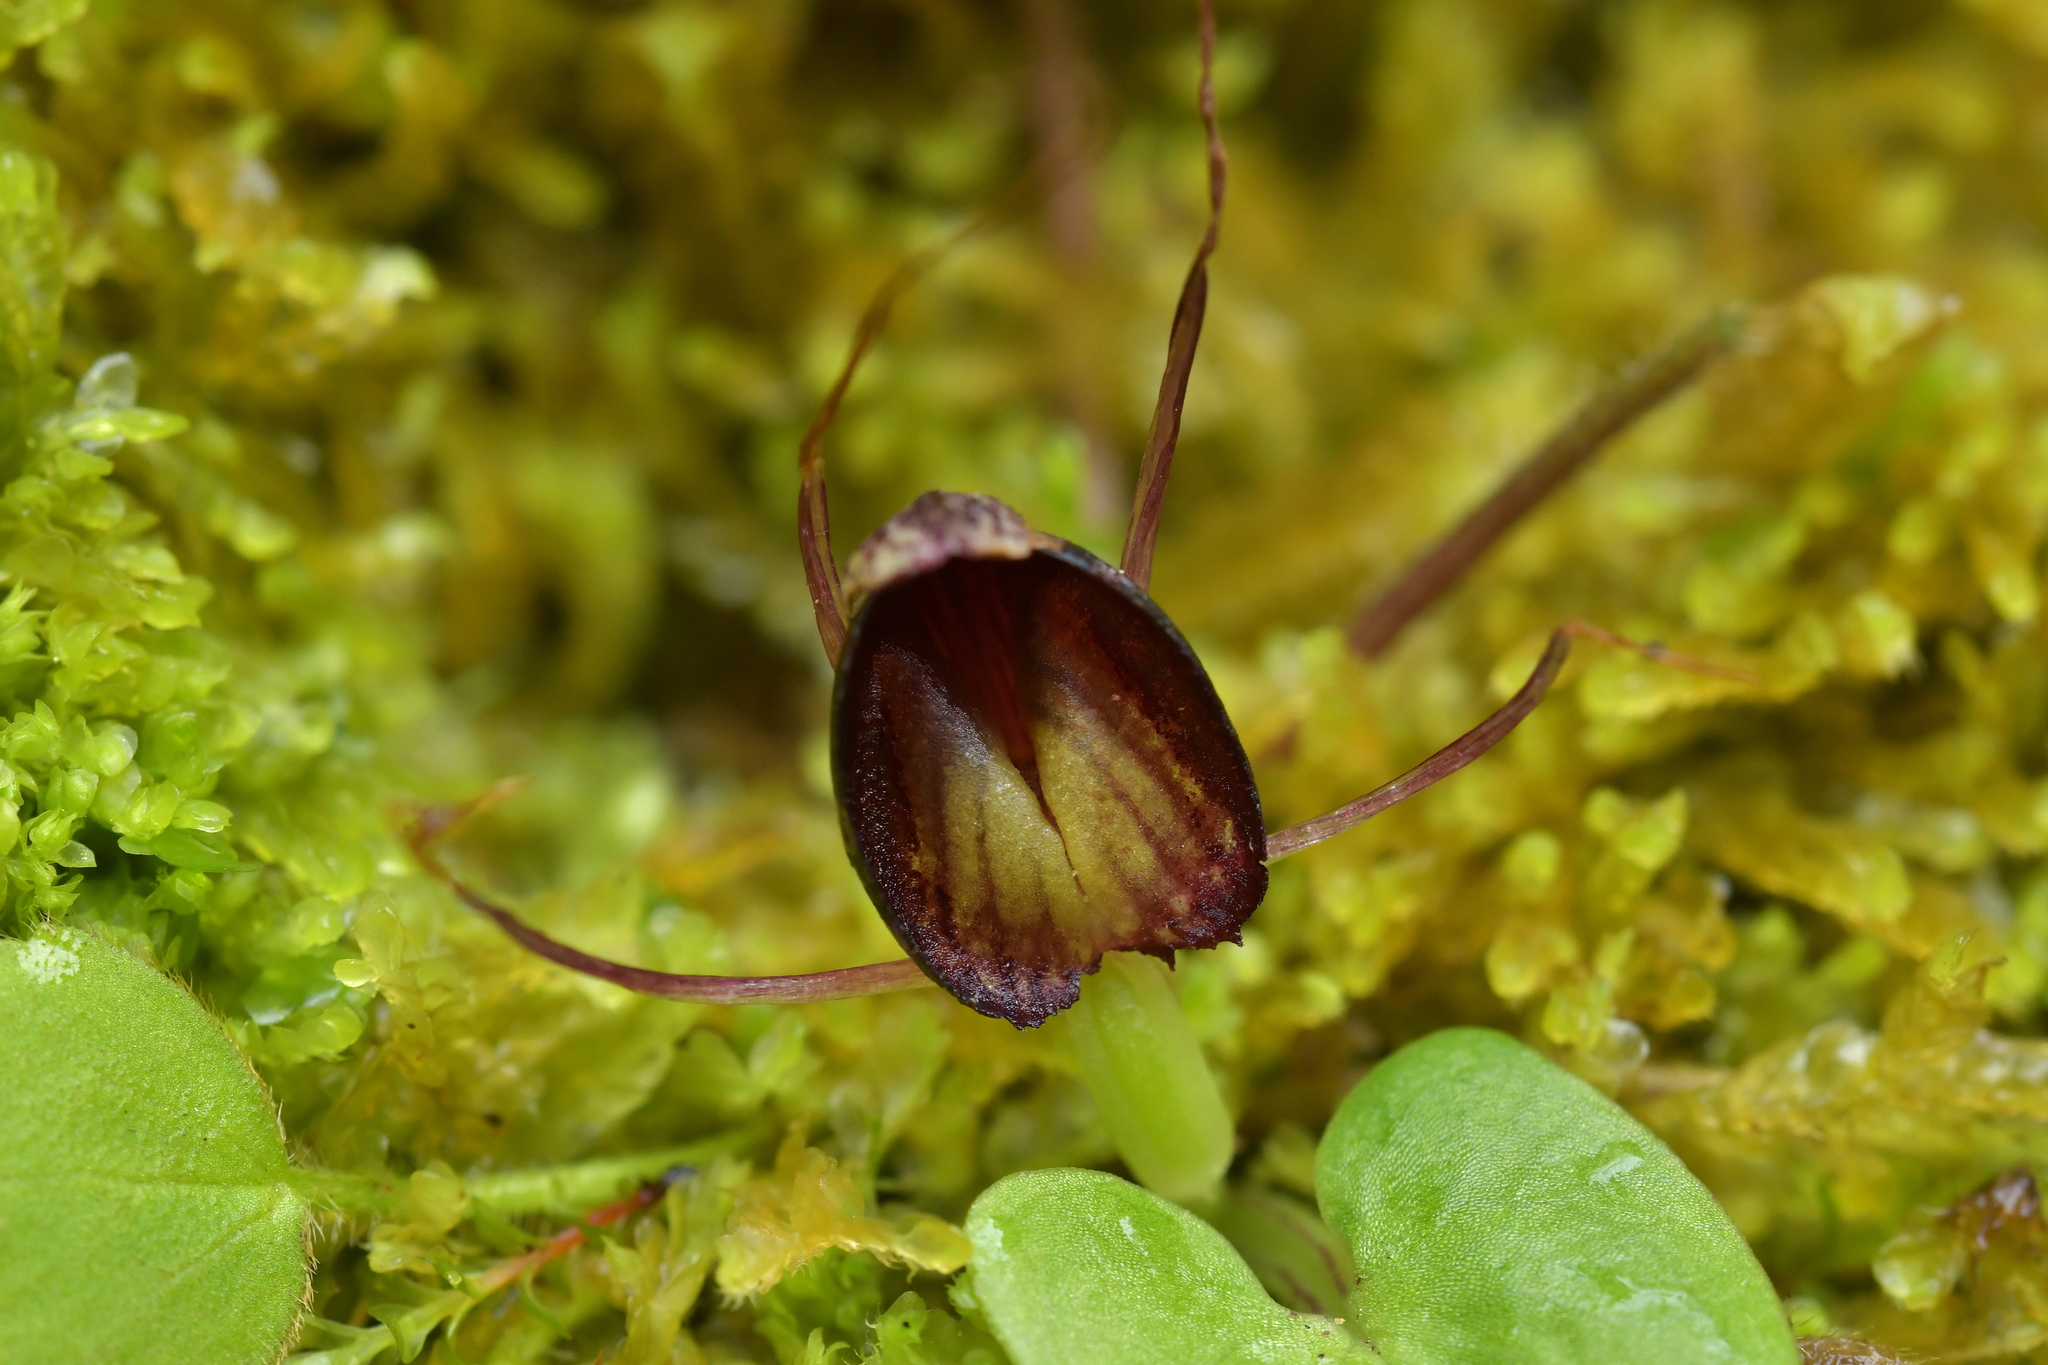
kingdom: Plantae
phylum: Tracheophyta
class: Liliopsida
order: Asparagales
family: Orchidaceae
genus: Corybas
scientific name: Corybas confusus
